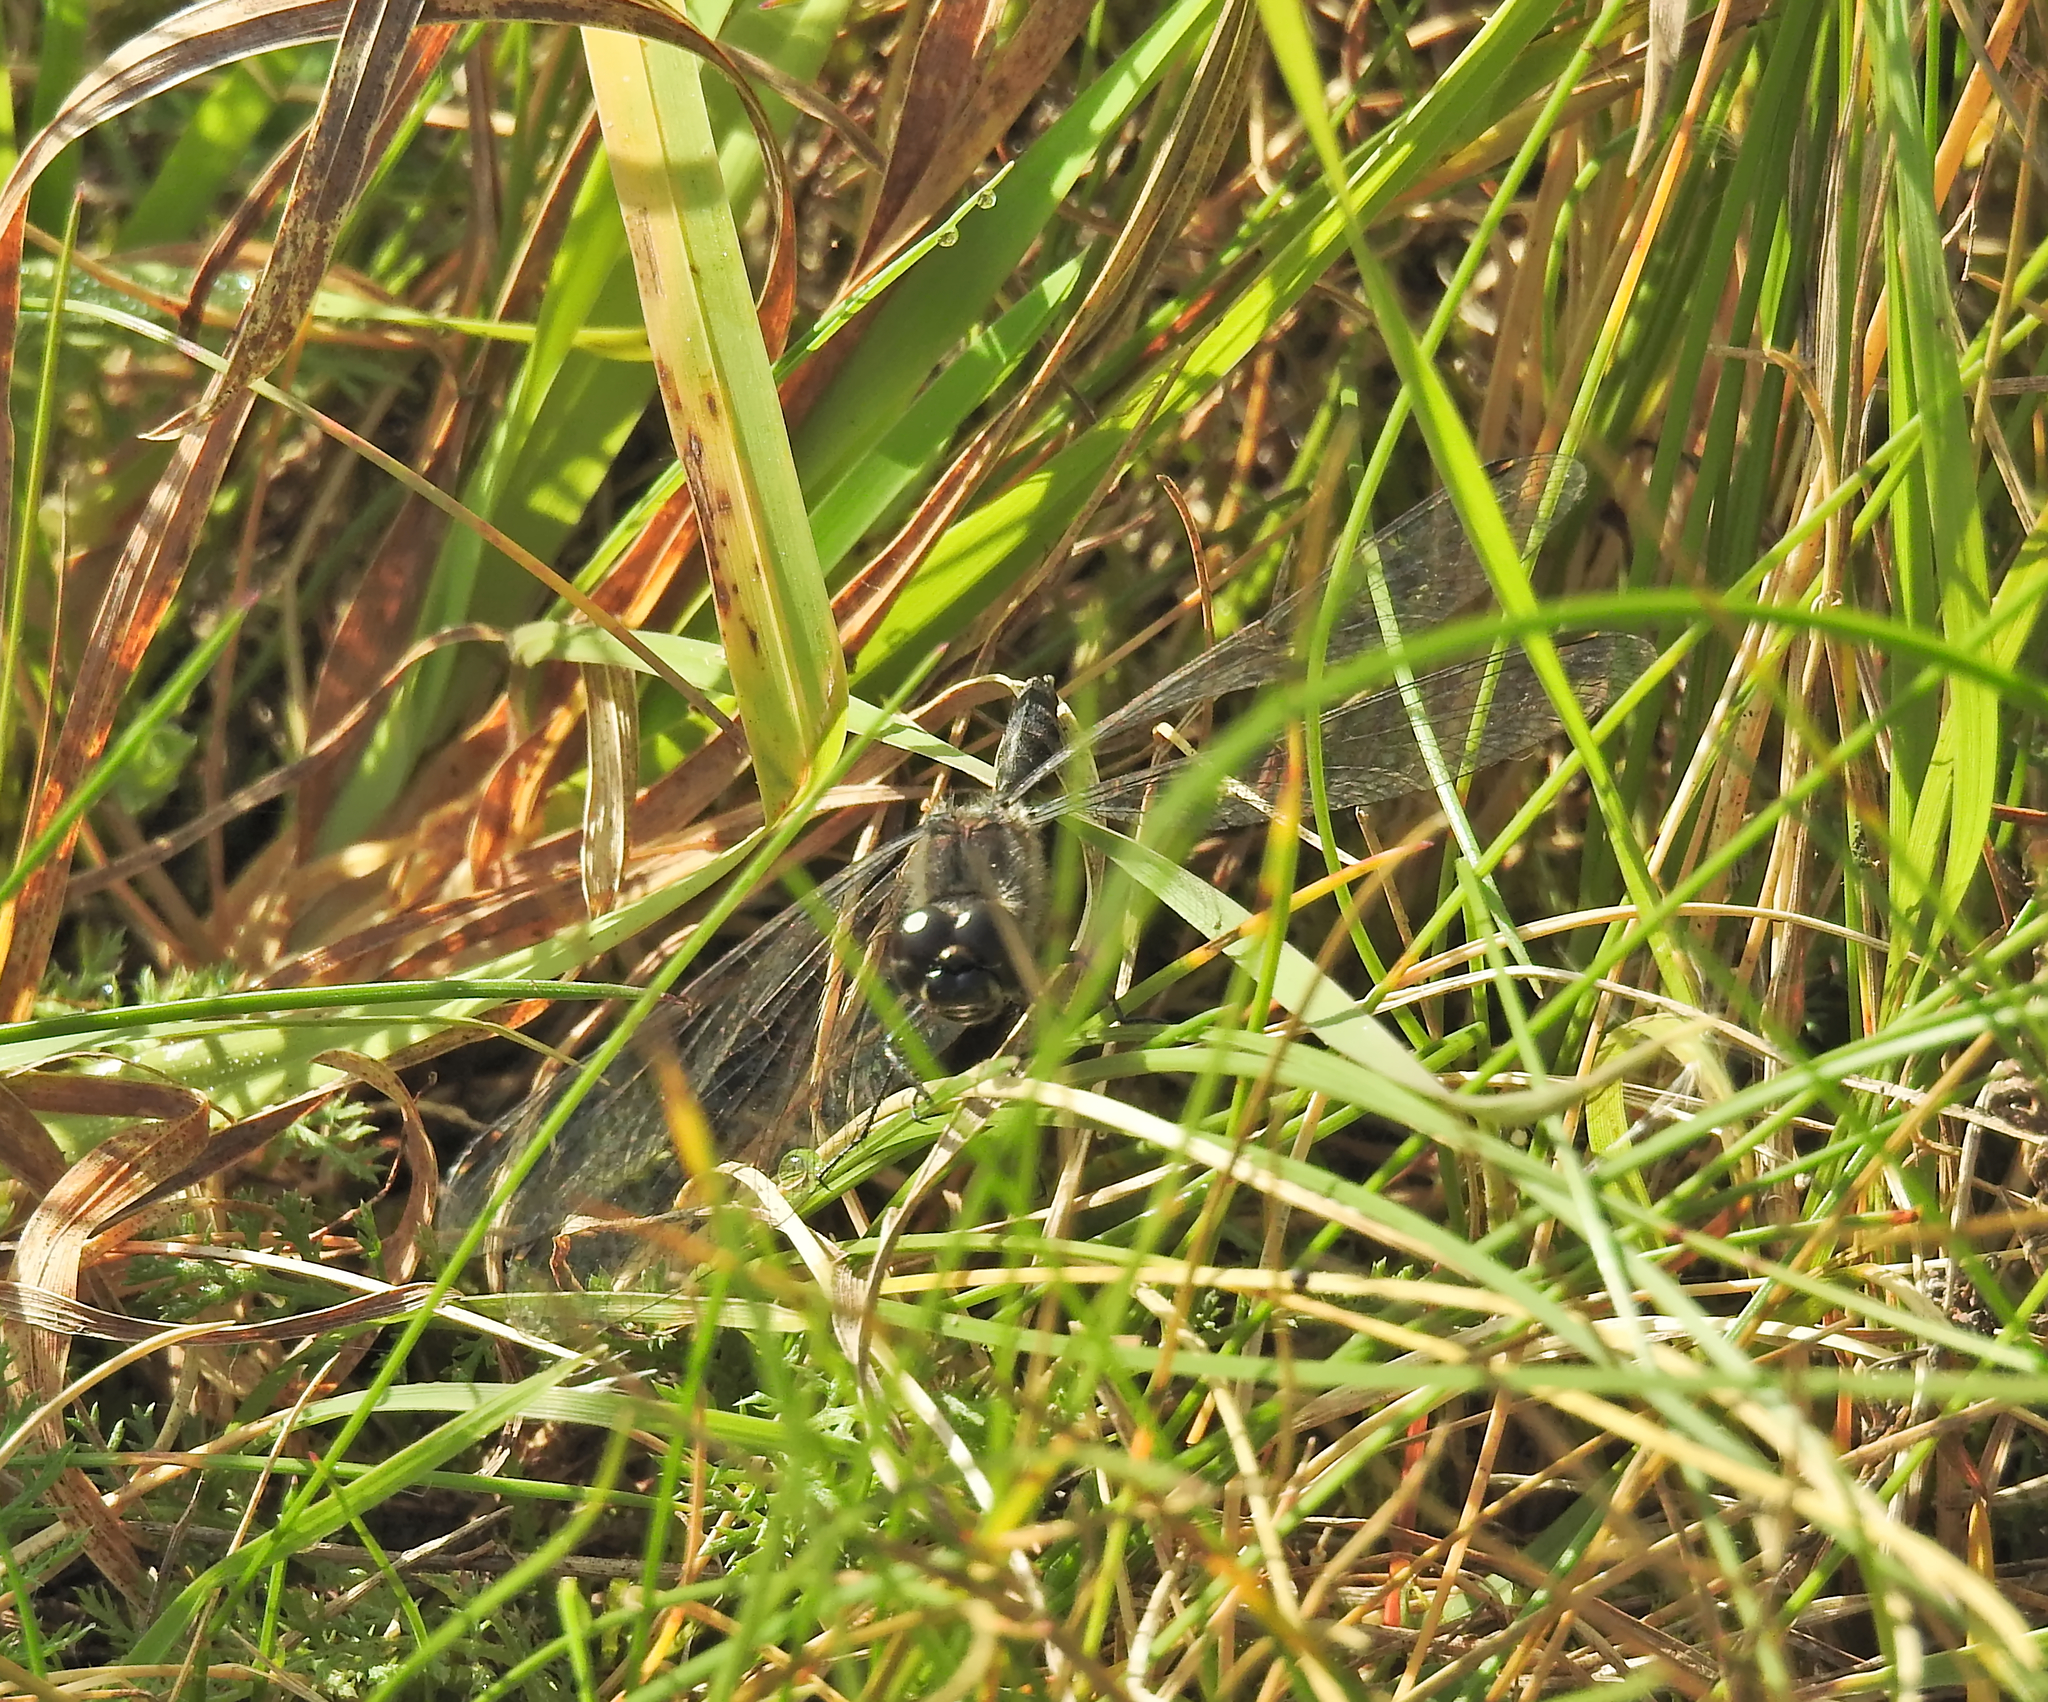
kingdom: Animalia
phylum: Arthropoda
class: Insecta
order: Odonata
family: Libellulidae
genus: Sympetrum
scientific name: Sympetrum danae
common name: Black darter
